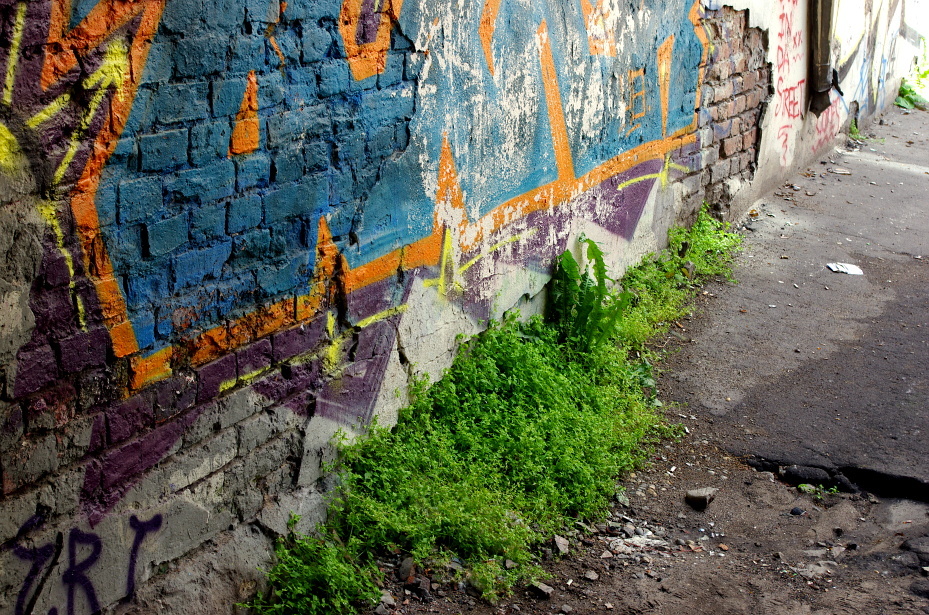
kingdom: Plantae
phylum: Tracheophyta
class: Magnoliopsida
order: Asterales
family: Asteraceae
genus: Taraxacum
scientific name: Taraxacum officinale
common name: Common dandelion
